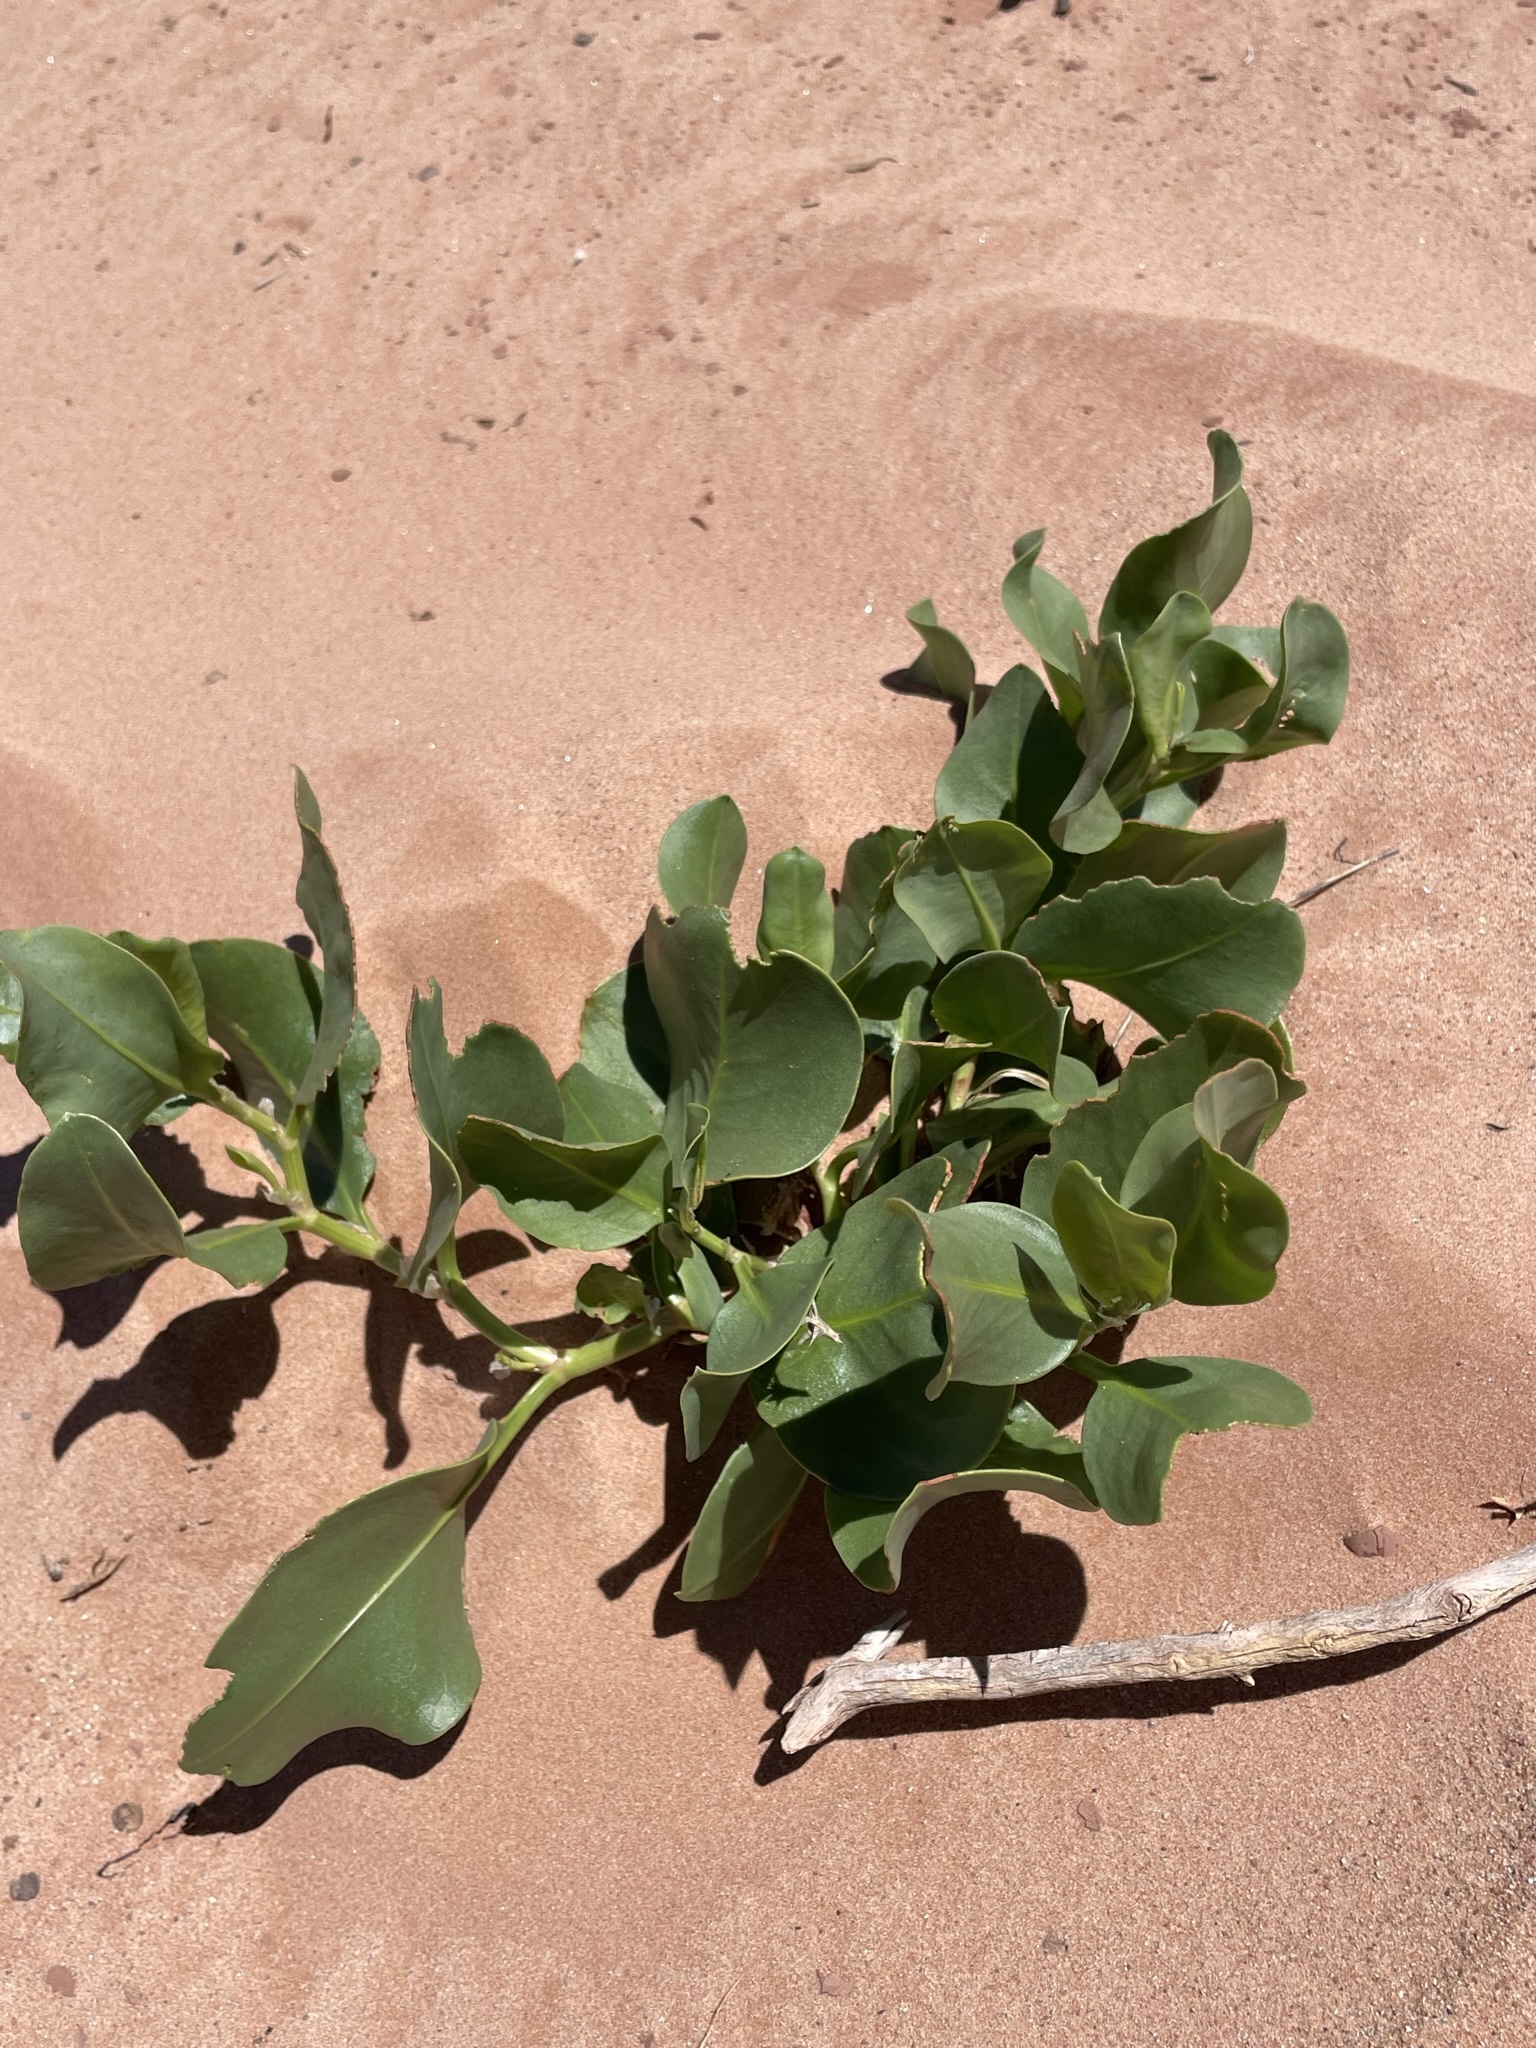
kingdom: Plantae
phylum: Tracheophyta
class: Magnoliopsida
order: Caryophyllales
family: Polygonaceae
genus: Rumex
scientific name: Rumex venosus
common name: Winged dock
